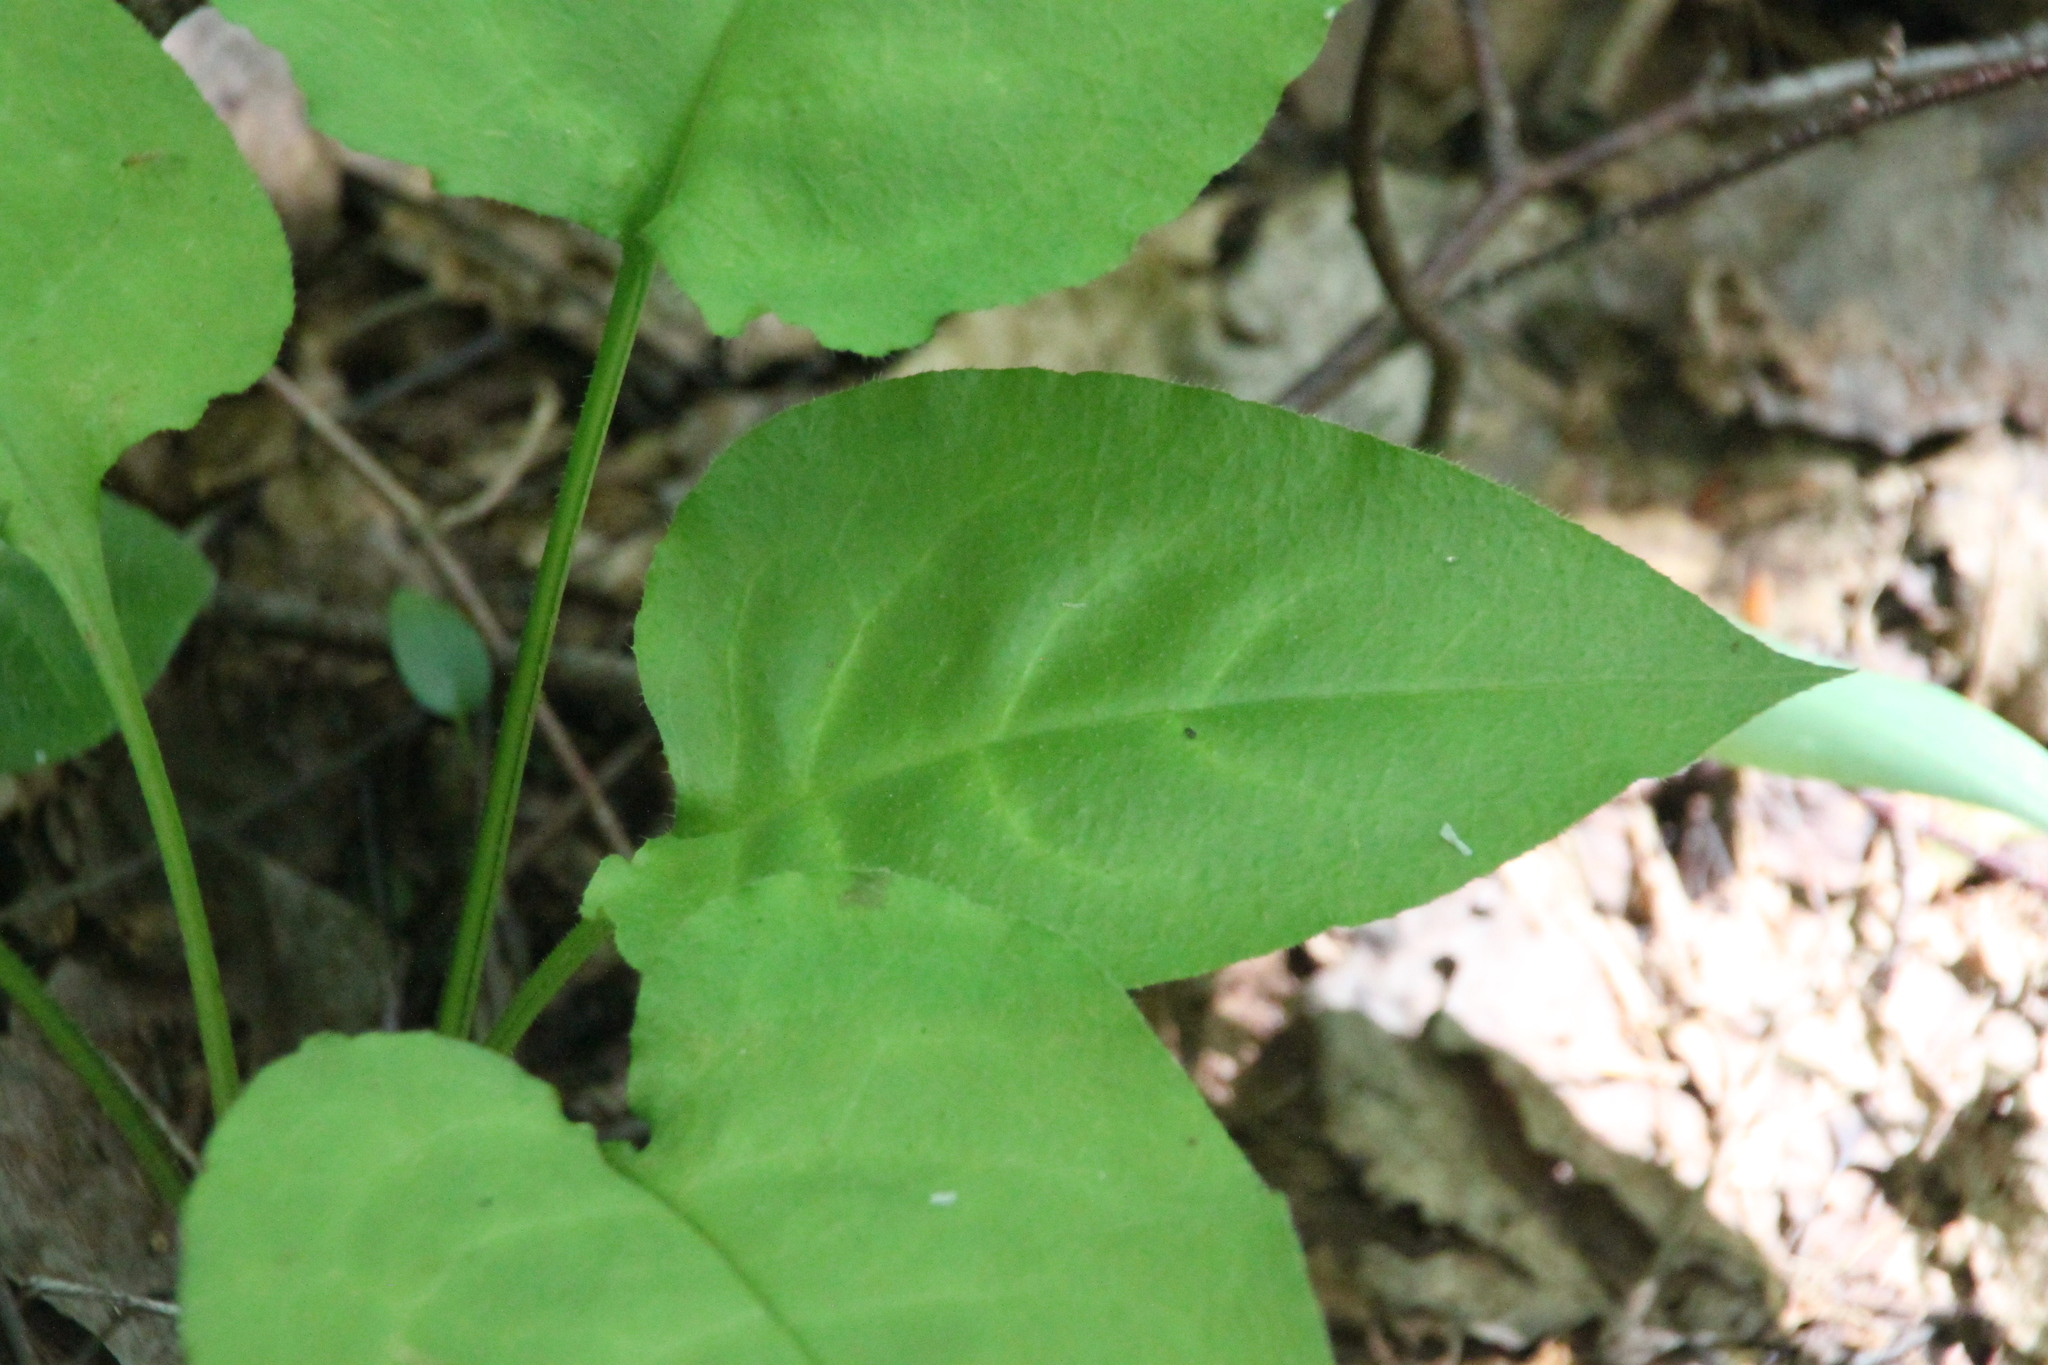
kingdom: Plantae
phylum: Tracheophyta
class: Magnoliopsida
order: Boraginales
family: Boraginaceae
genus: Pulmonaria
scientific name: Pulmonaria obscura
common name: Suffolk lungwort
